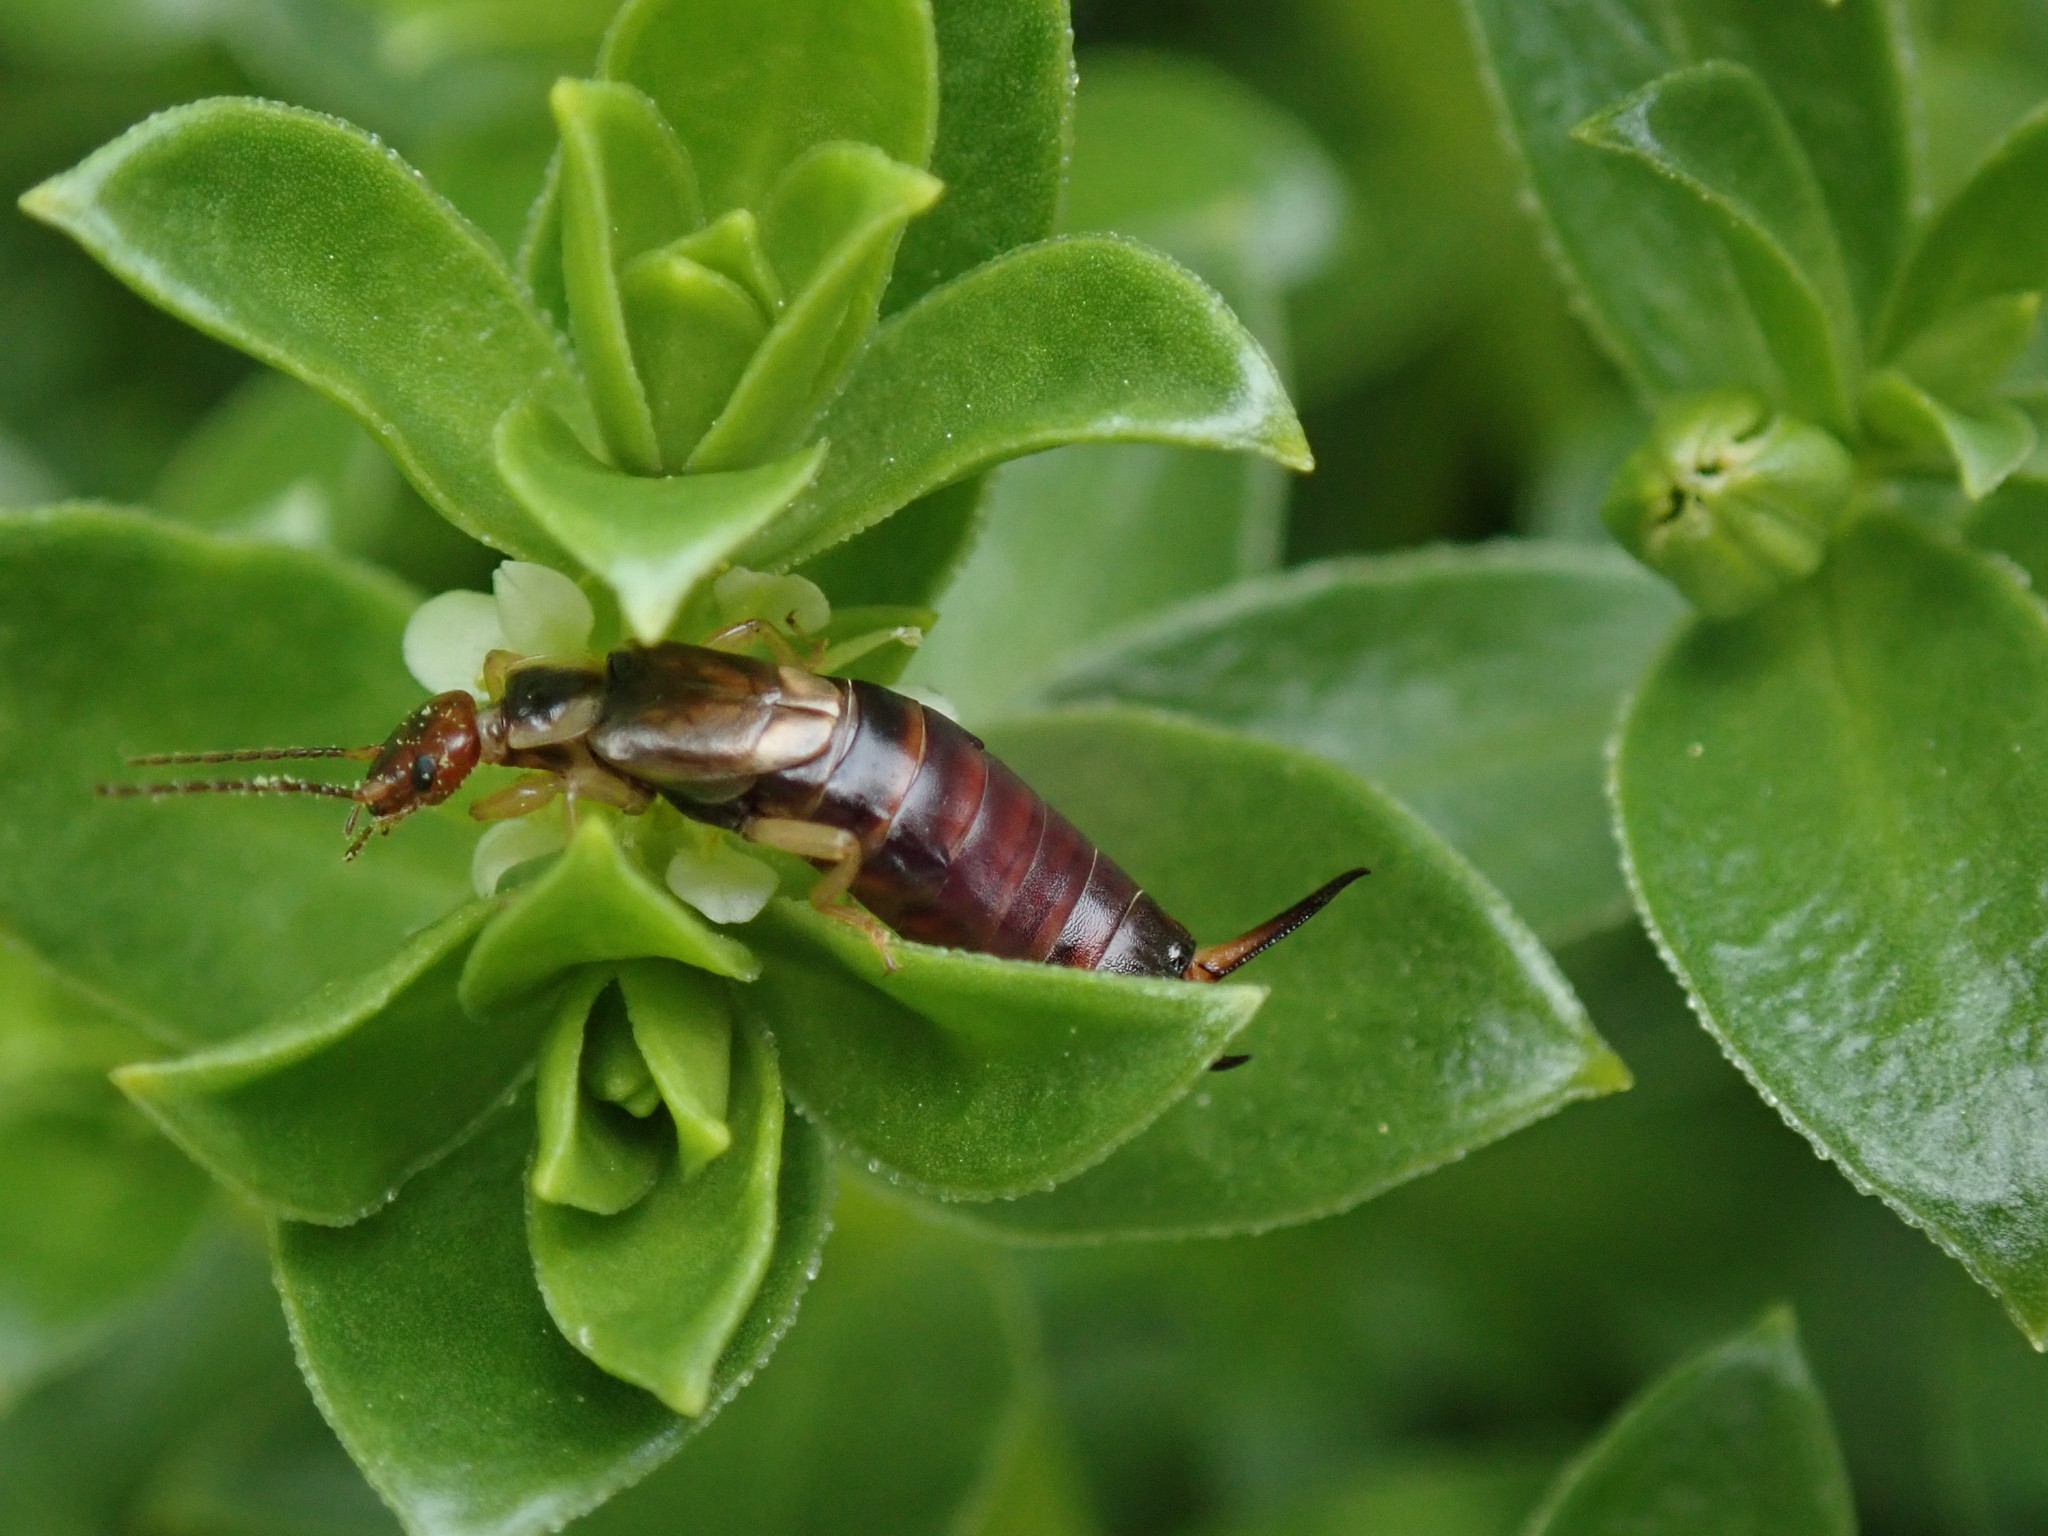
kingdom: Animalia
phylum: Arthropoda
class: Insecta
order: Dermaptera
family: Forficulidae
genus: Forficula
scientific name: Forficula
